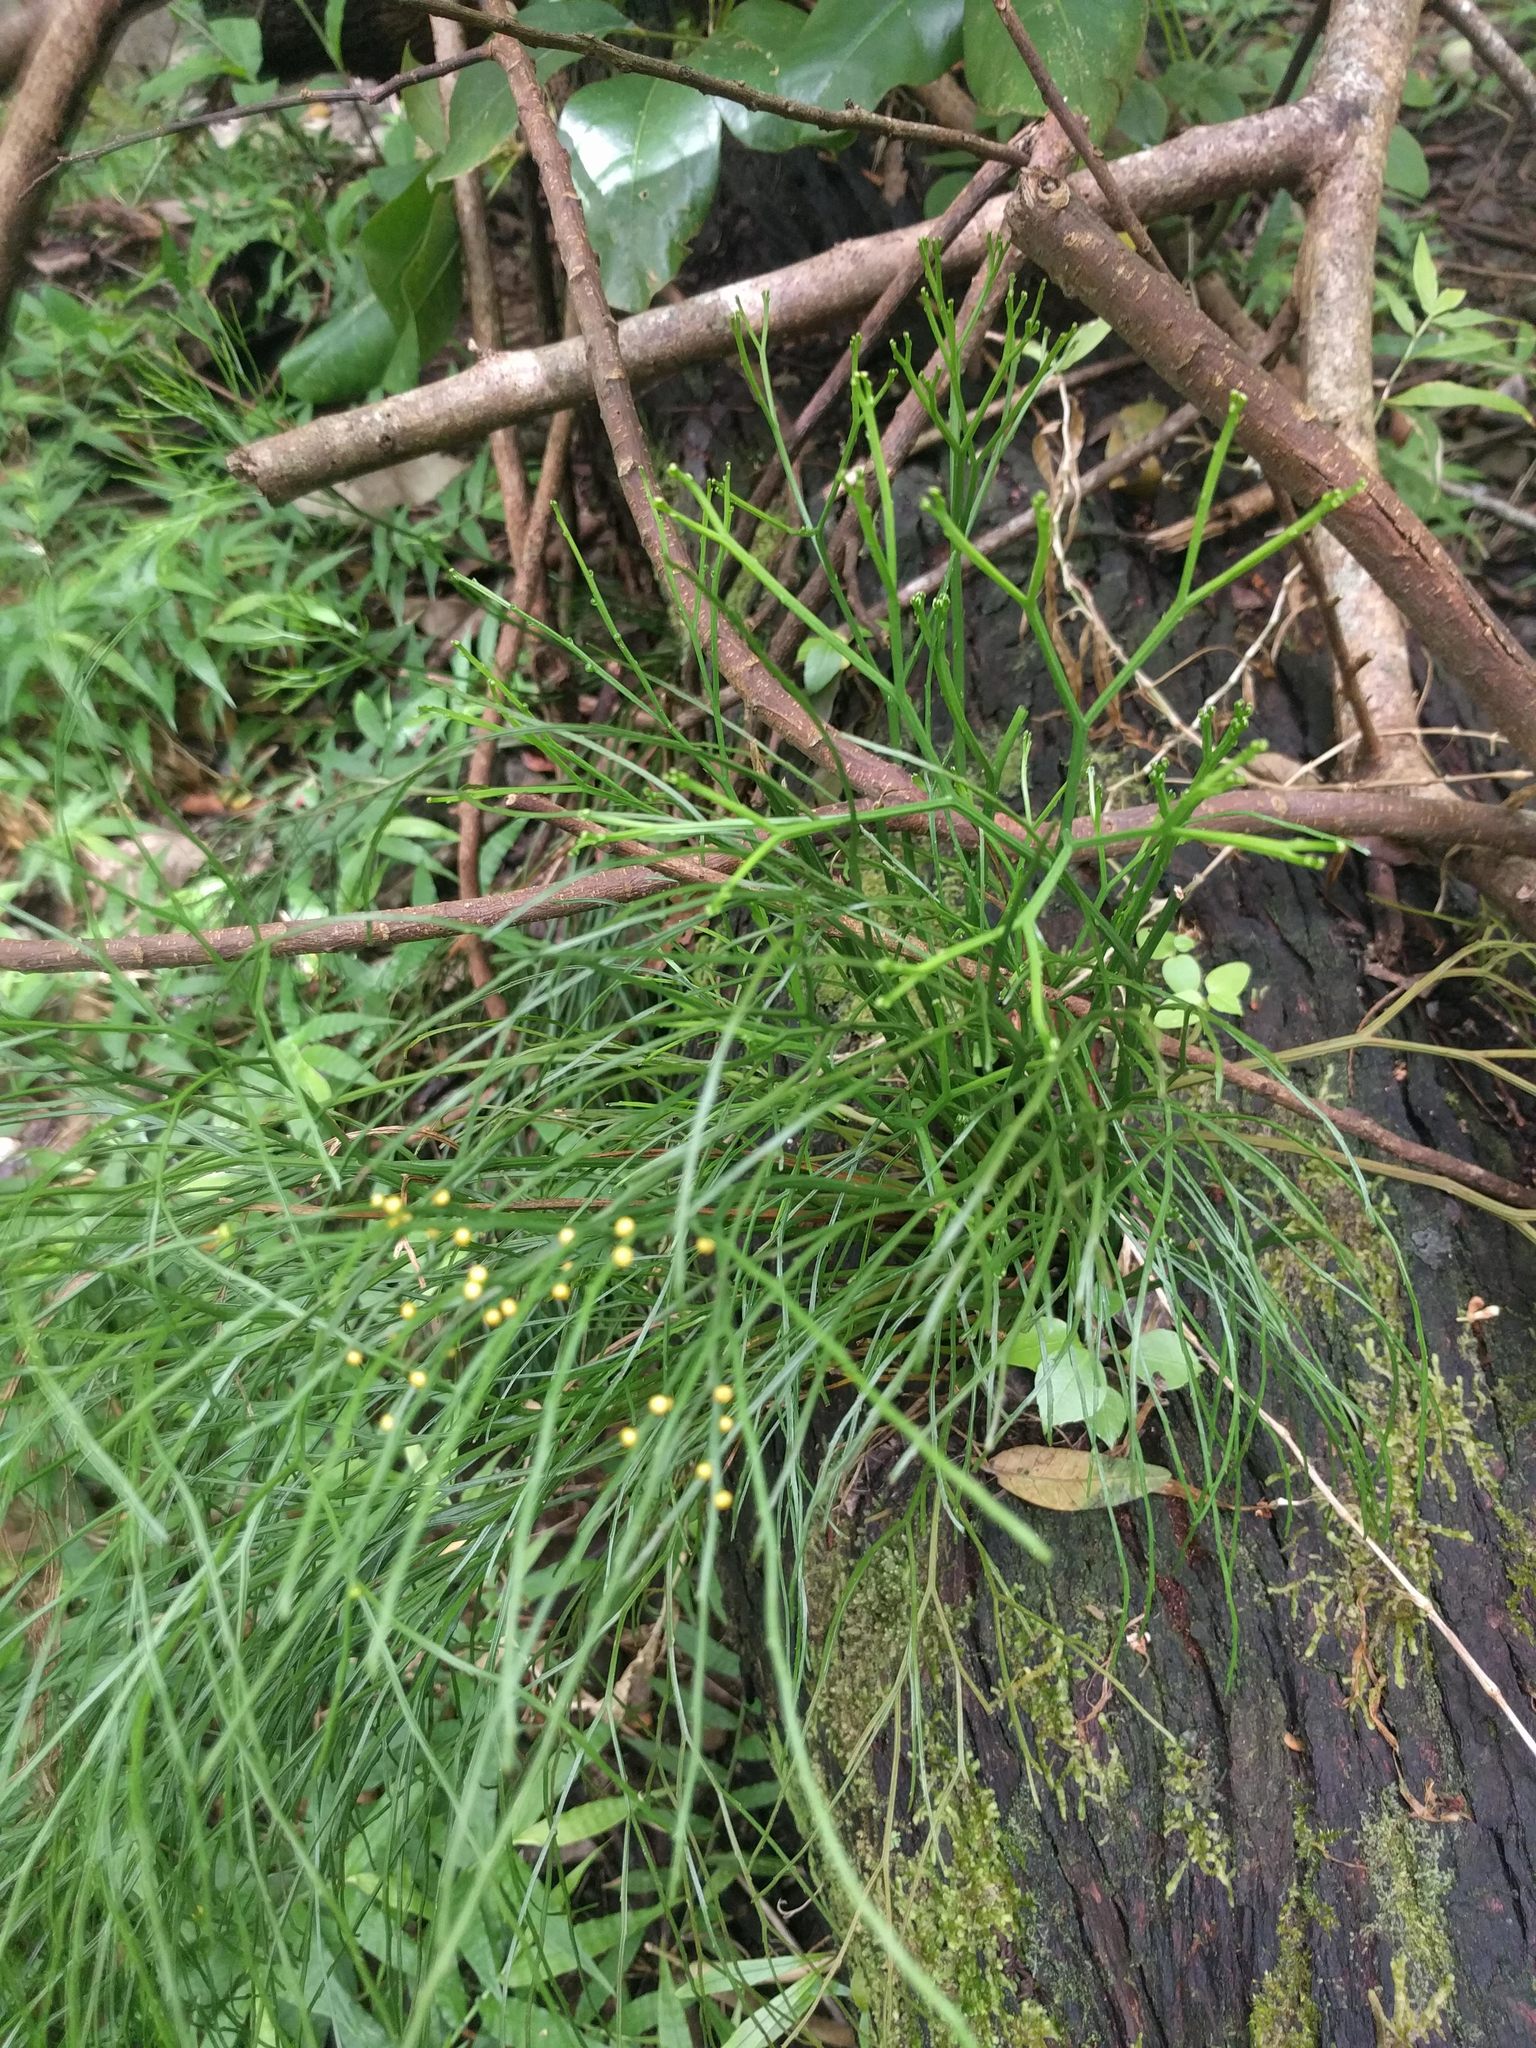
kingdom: Plantae
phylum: Tracheophyta
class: Polypodiopsida
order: Psilotales
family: Psilotaceae
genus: Psilotum
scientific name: Psilotum nudum
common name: Skeleton fork fern
